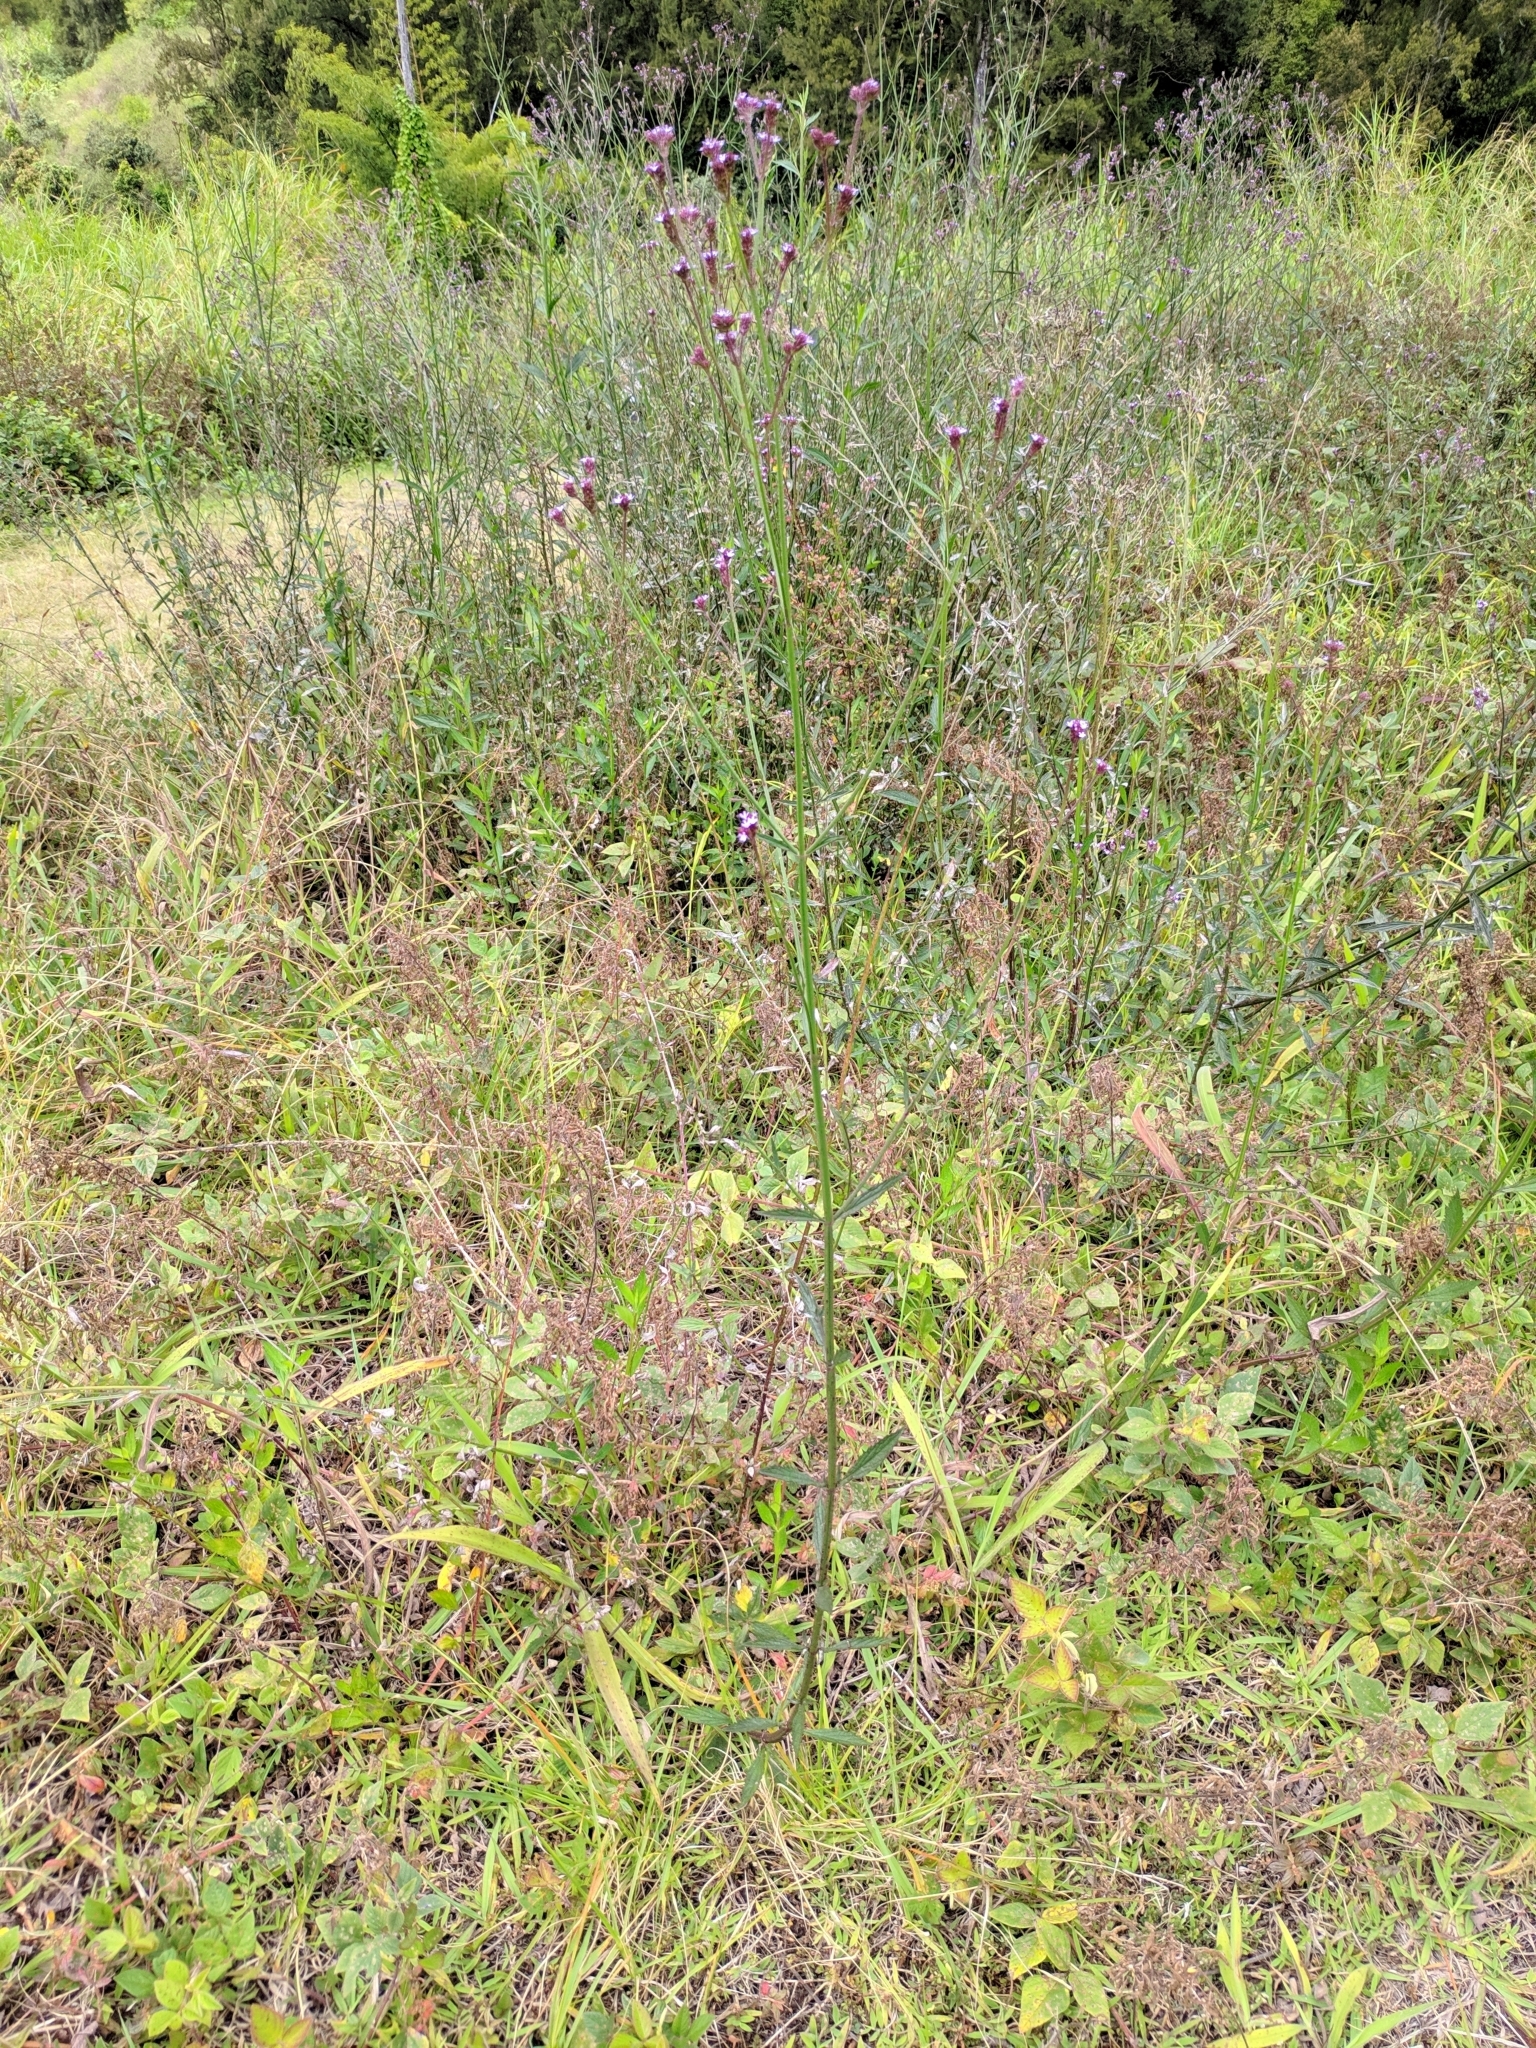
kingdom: Plantae
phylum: Tracheophyta
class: Magnoliopsida
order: Lamiales
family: Verbenaceae
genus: Verbena
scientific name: Verbena bonariensis
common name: Purpletop vervain
